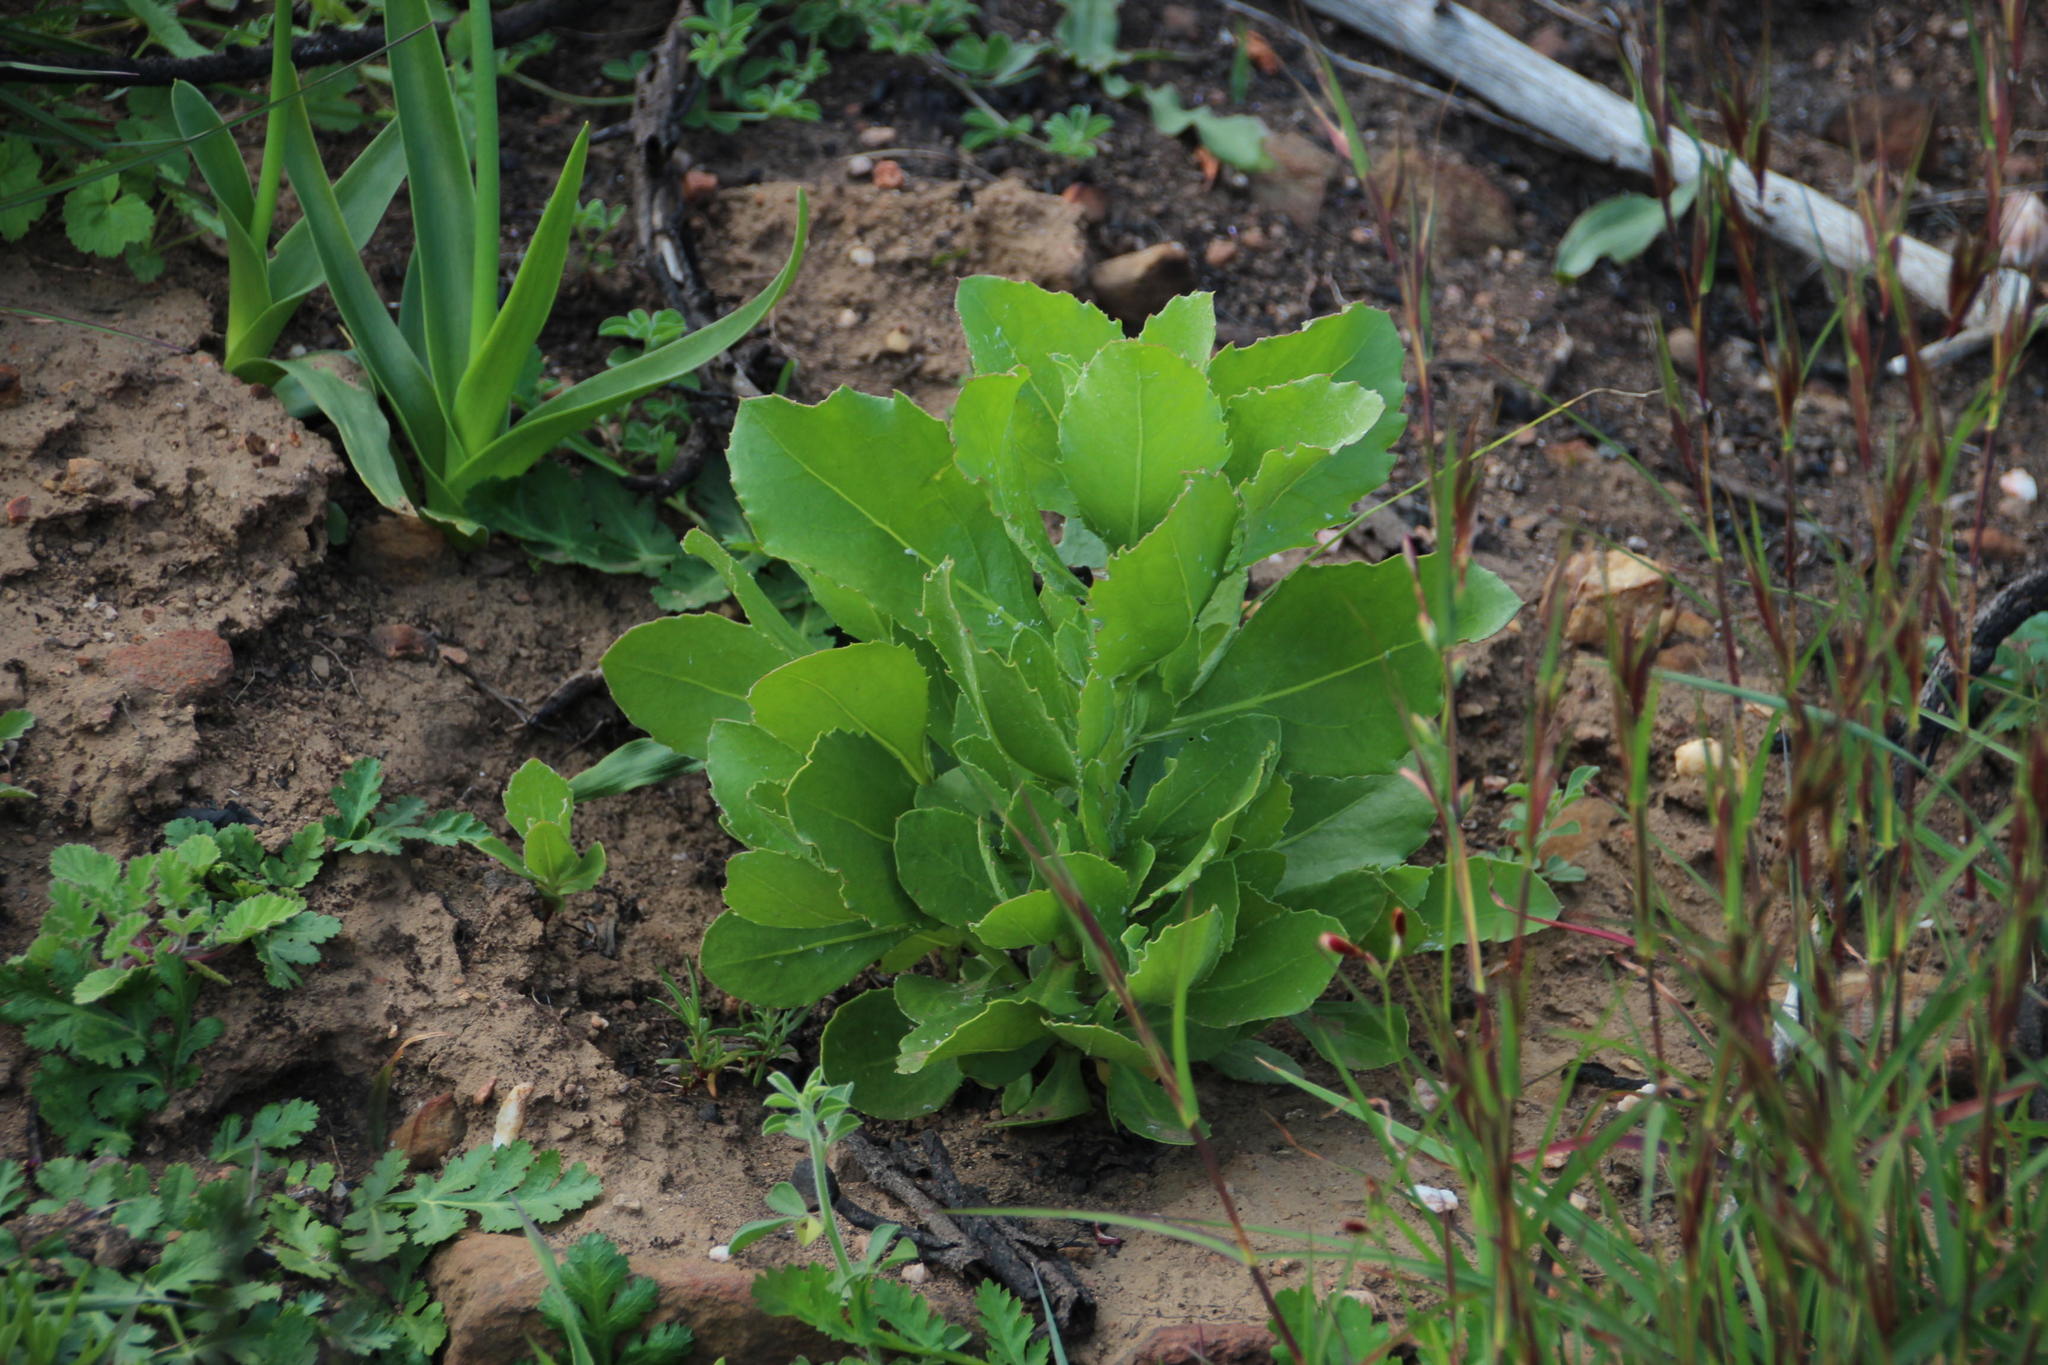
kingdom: Plantae
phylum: Tracheophyta
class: Magnoliopsida
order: Asterales
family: Asteraceae
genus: Osteospermum
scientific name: Osteospermum moniliferum
